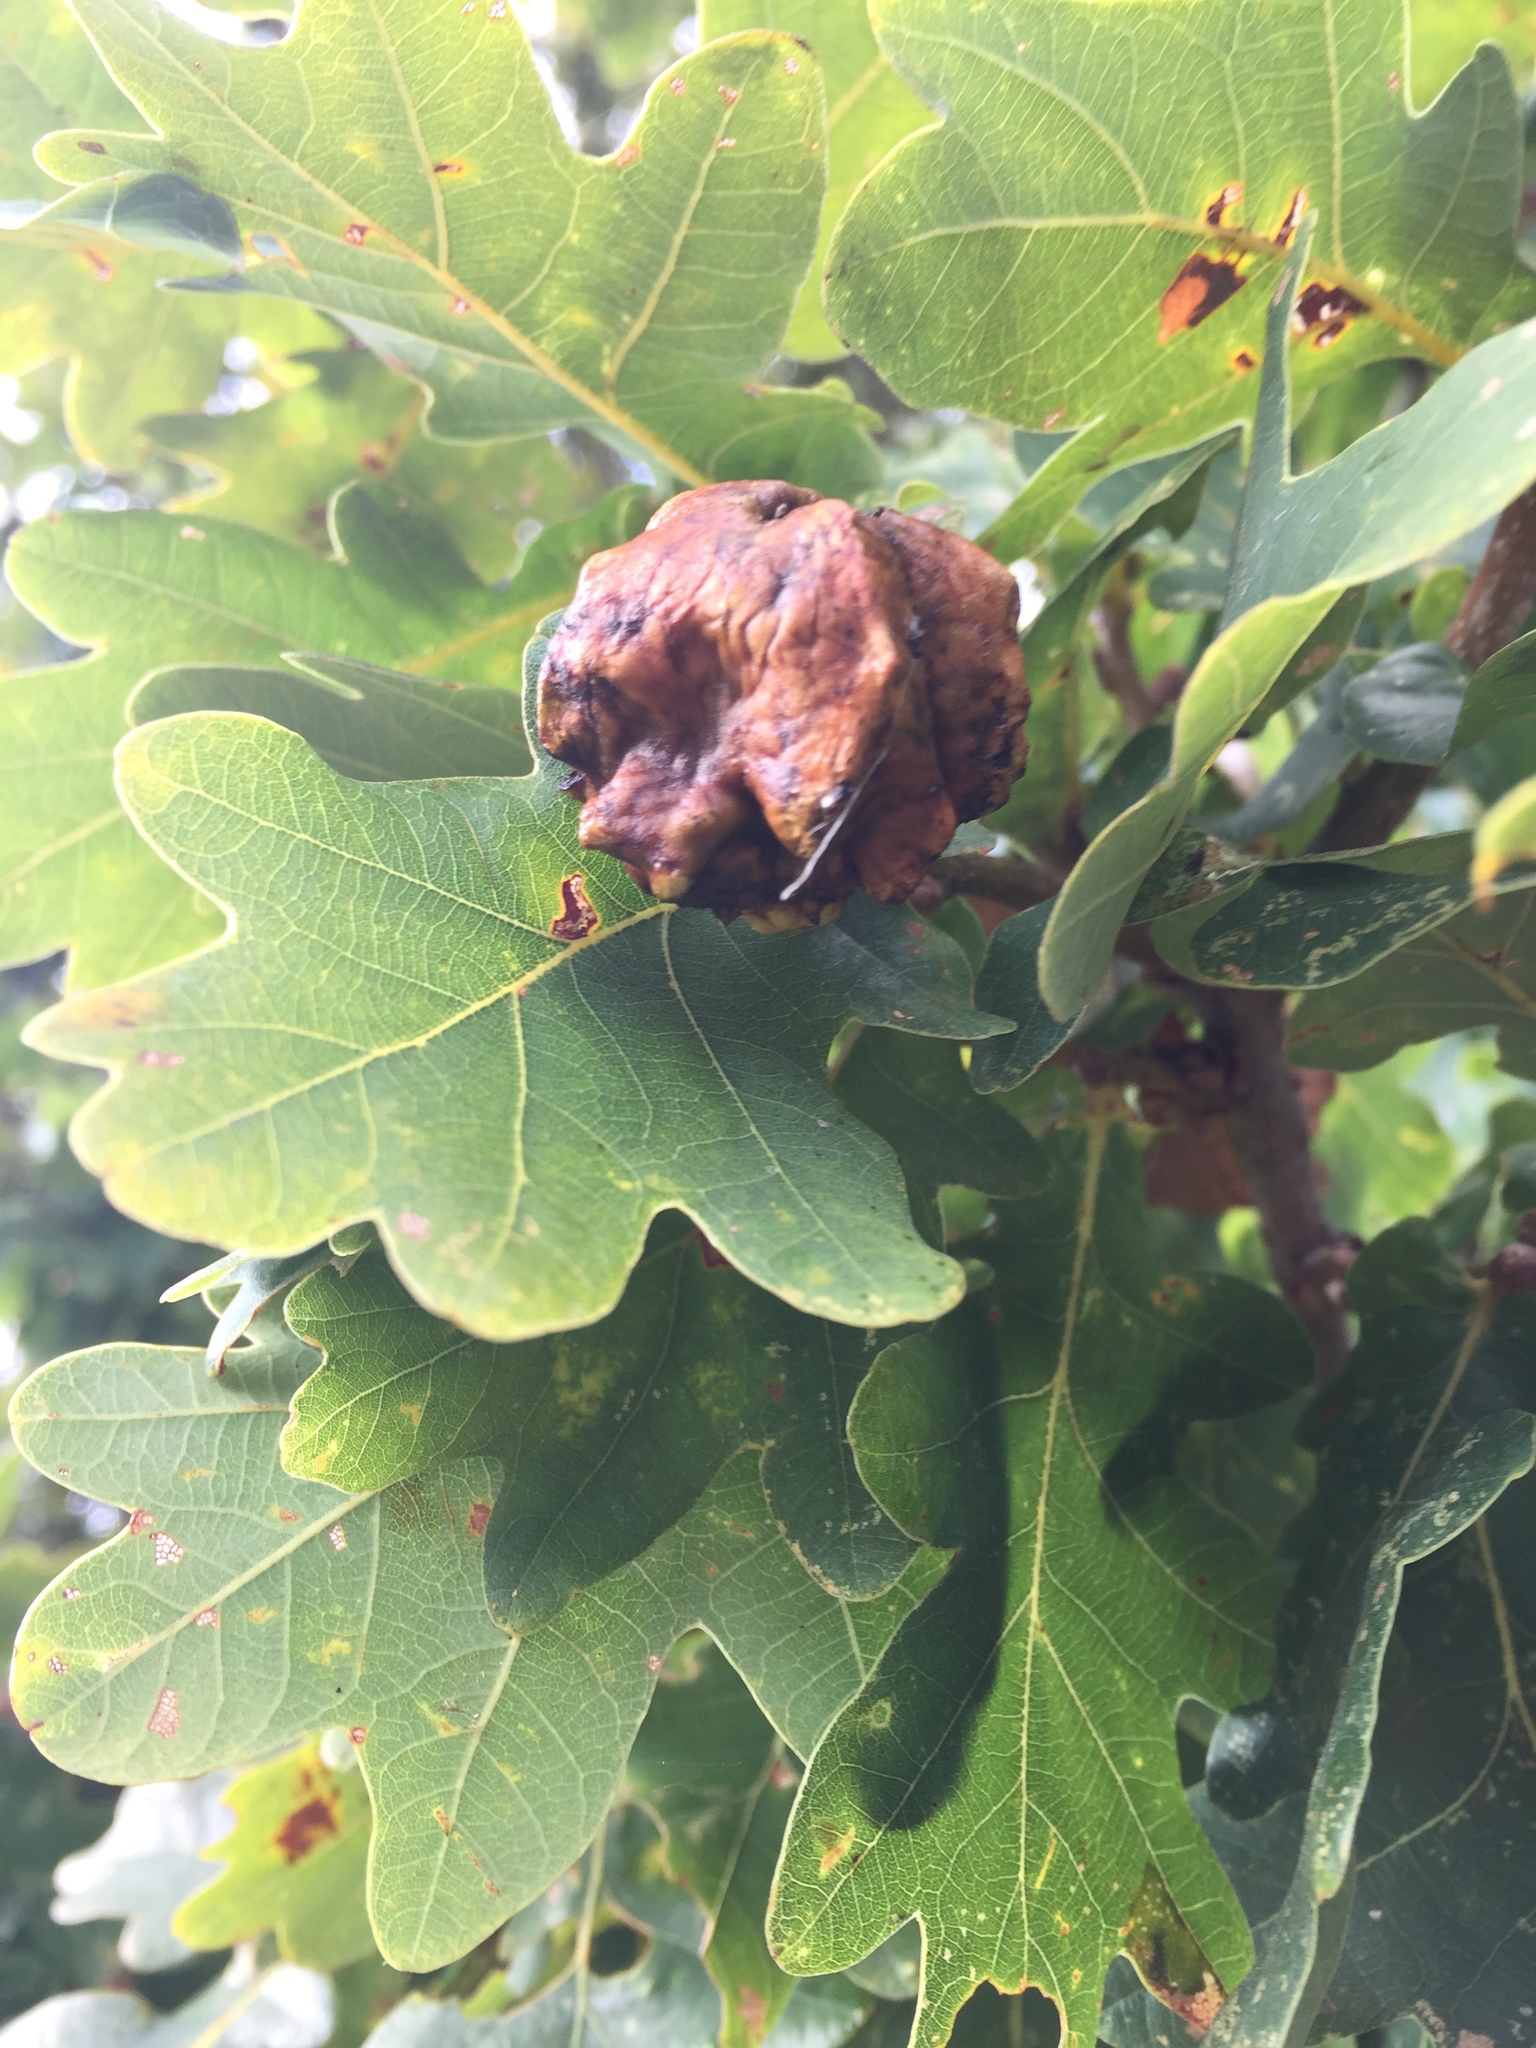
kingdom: Animalia
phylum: Arthropoda
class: Insecta
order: Hymenoptera
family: Cynipidae
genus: Andricus
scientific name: Andricus quercuscalicis
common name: Knopper gall
